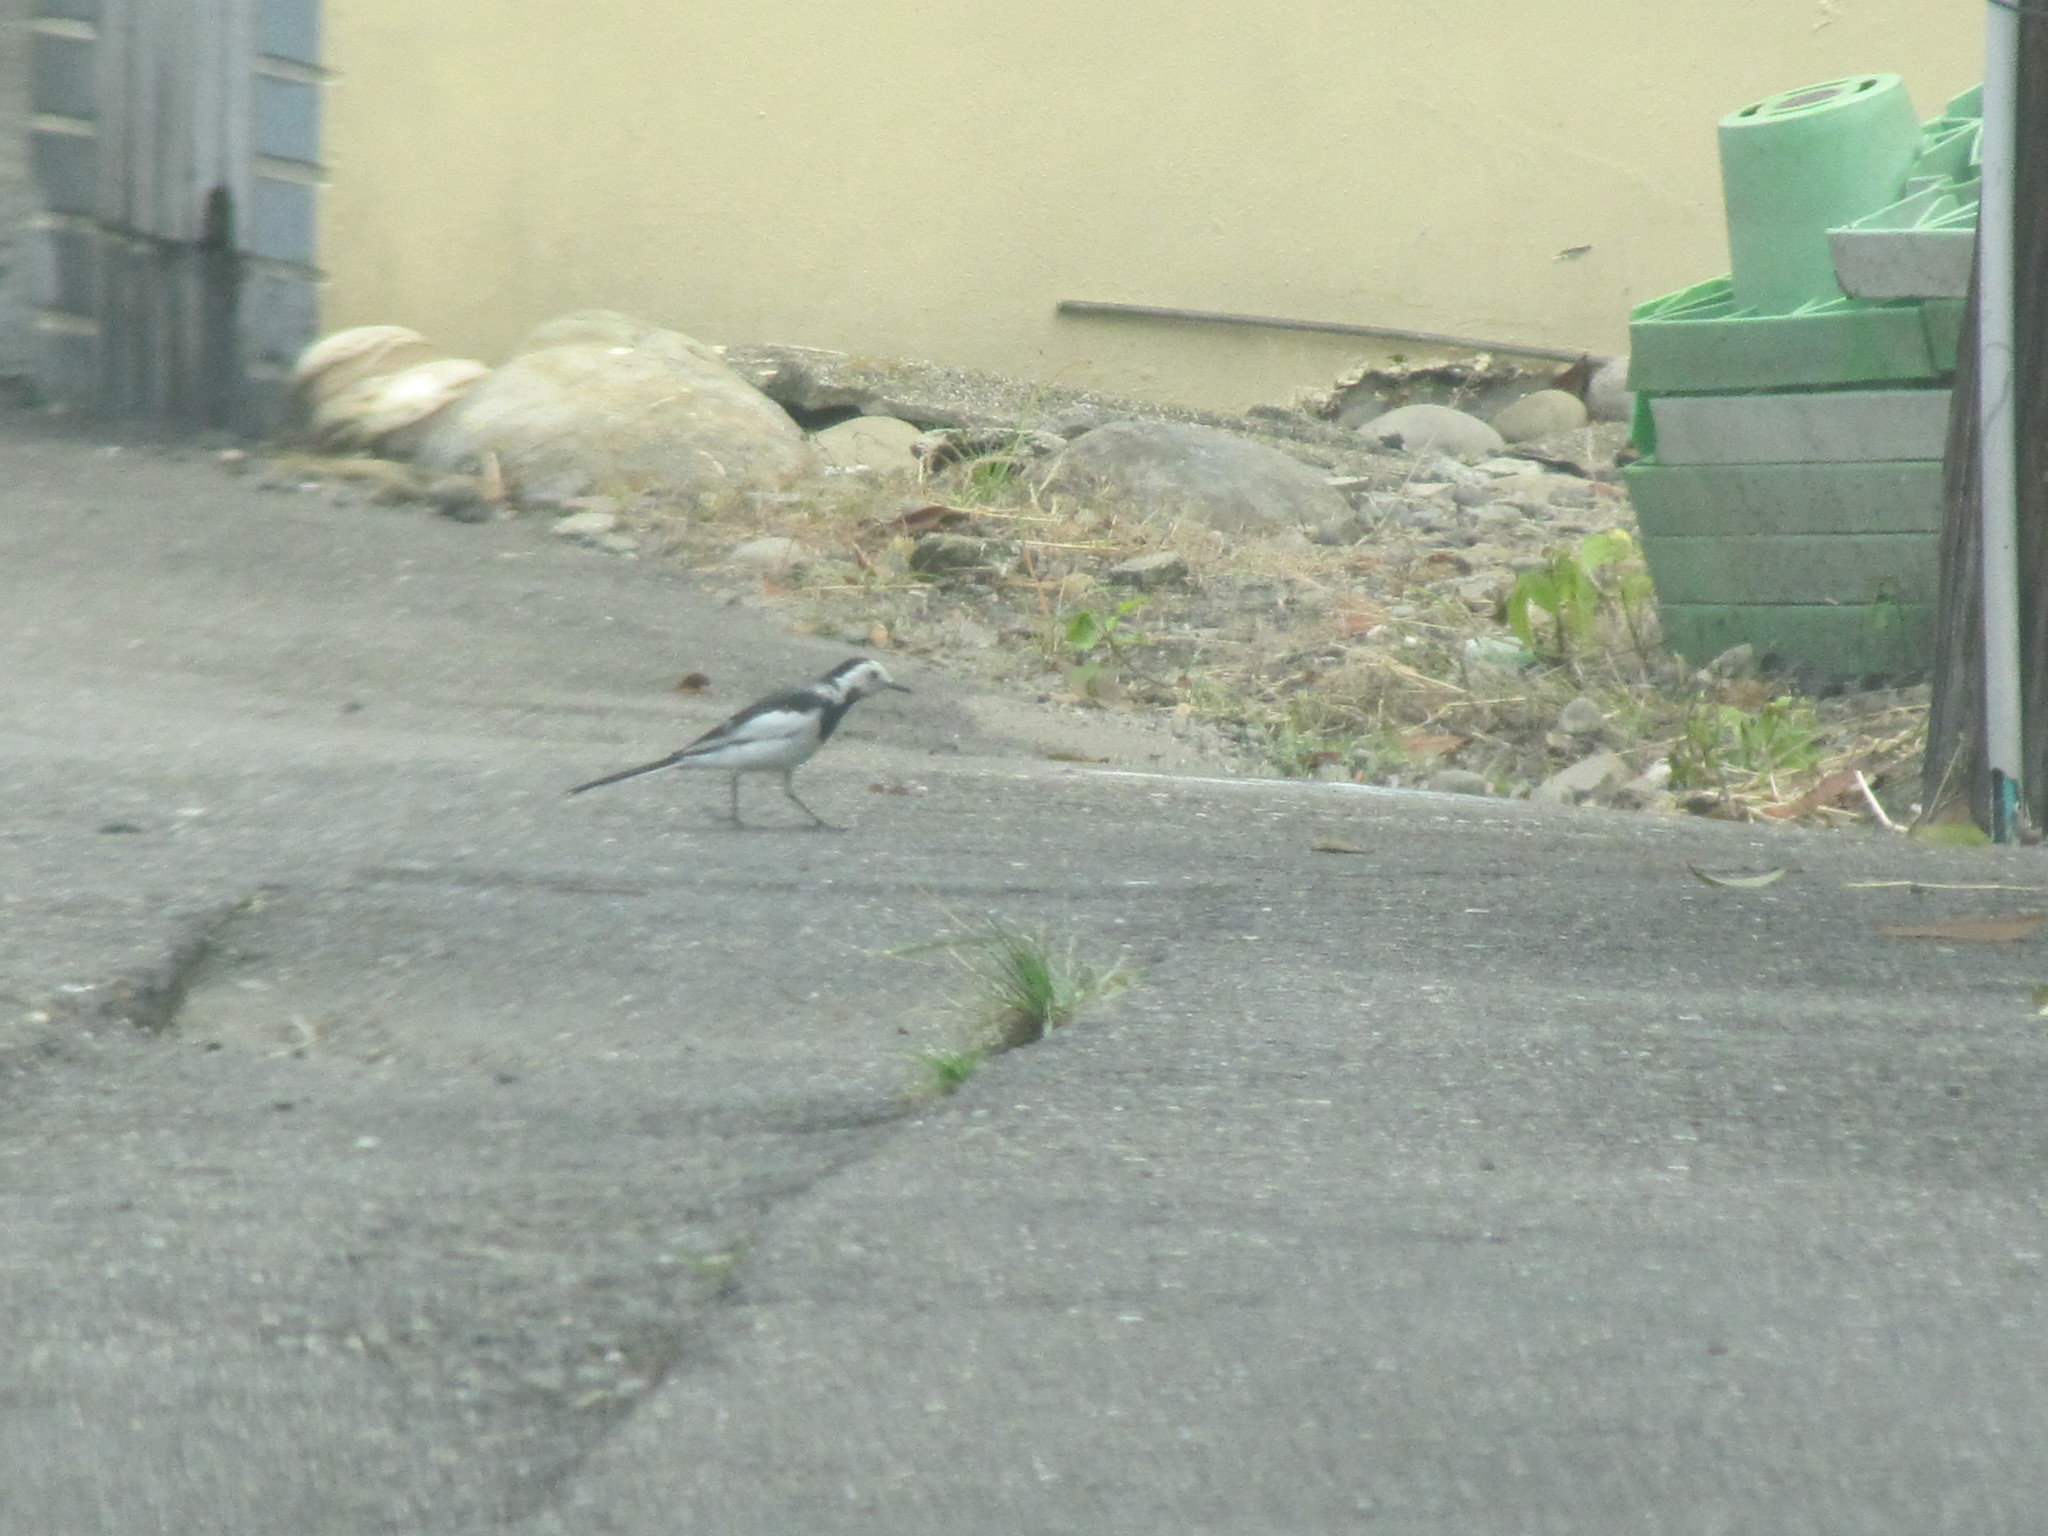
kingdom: Animalia
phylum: Chordata
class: Aves
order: Passeriformes
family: Motacillidae
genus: Motacilla
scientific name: Motacilla alba
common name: White wagtail
